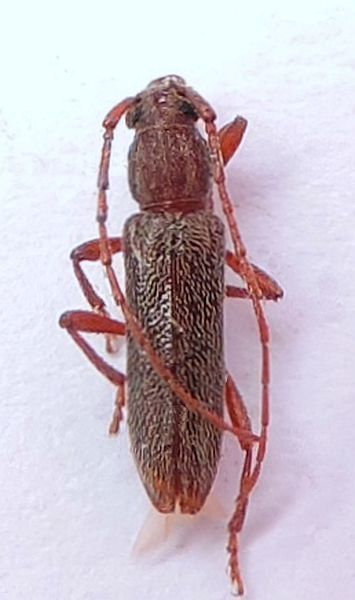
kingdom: Animalia
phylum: Arthropoda
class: Insecta
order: Coleoptera
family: Cerambycidae
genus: Micranoplium
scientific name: Micranoplium unicolor
